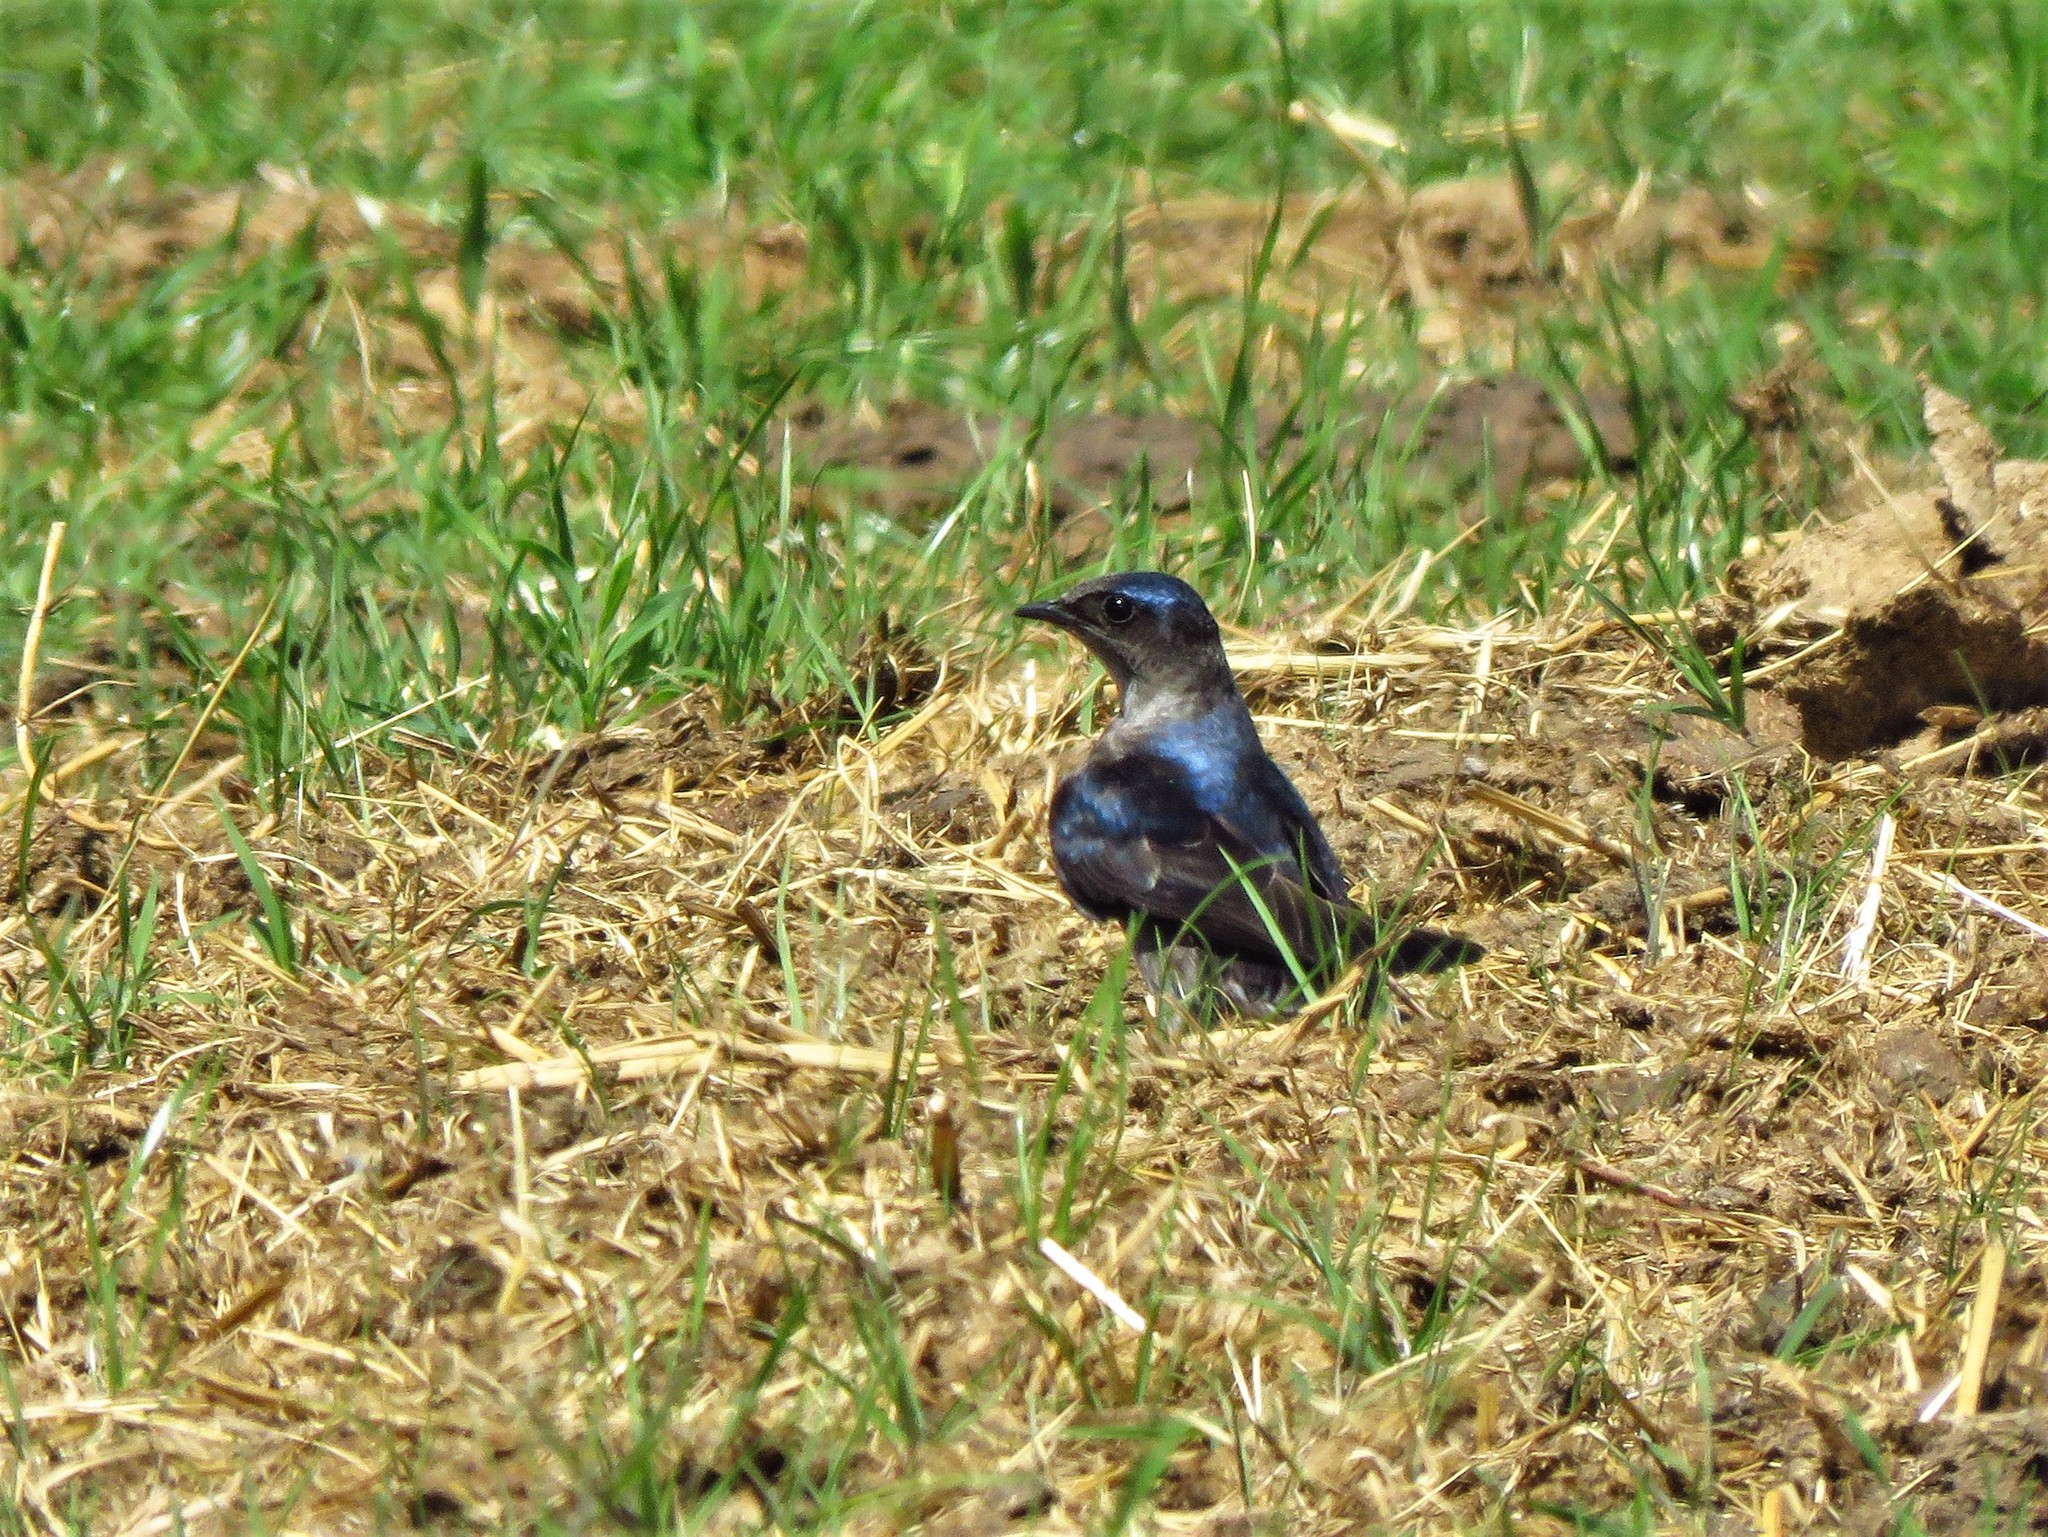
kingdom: Animalia
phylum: Chordata
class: Aves
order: Passeriformes
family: Hirundinidae
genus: Progne
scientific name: Progne subis
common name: Purple martin
